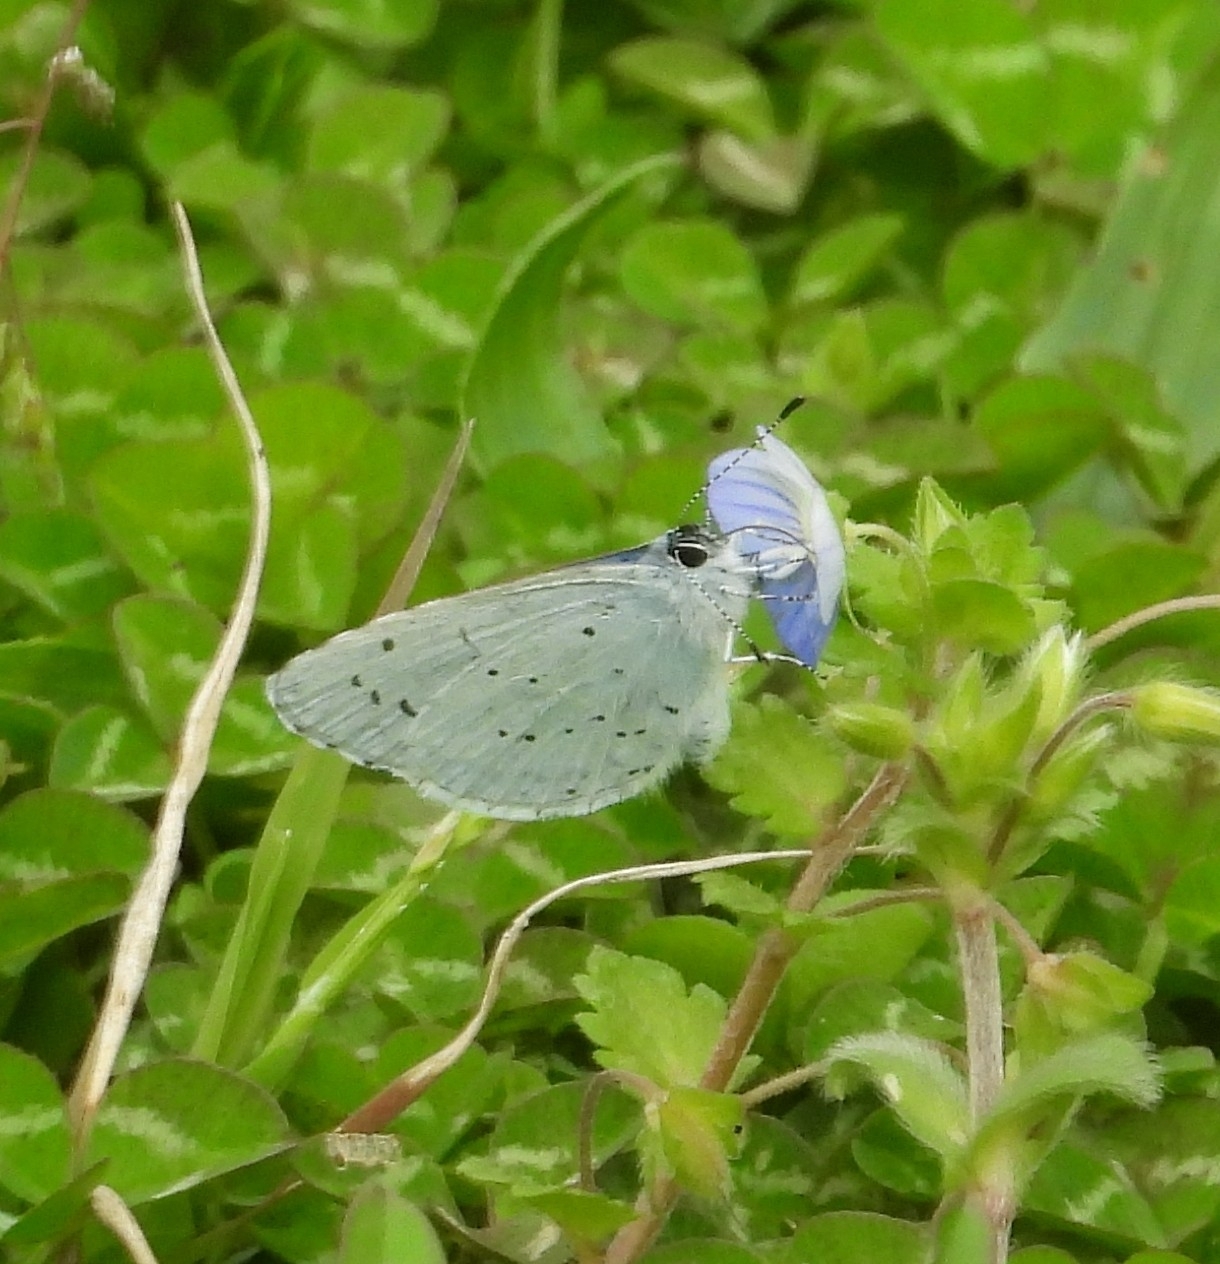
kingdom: Animalia
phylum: Arthropoda
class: Insecta
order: Lepidoptera
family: Lycaenidae
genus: Celastrina
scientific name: Celastrina argiolus
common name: Holly blue
